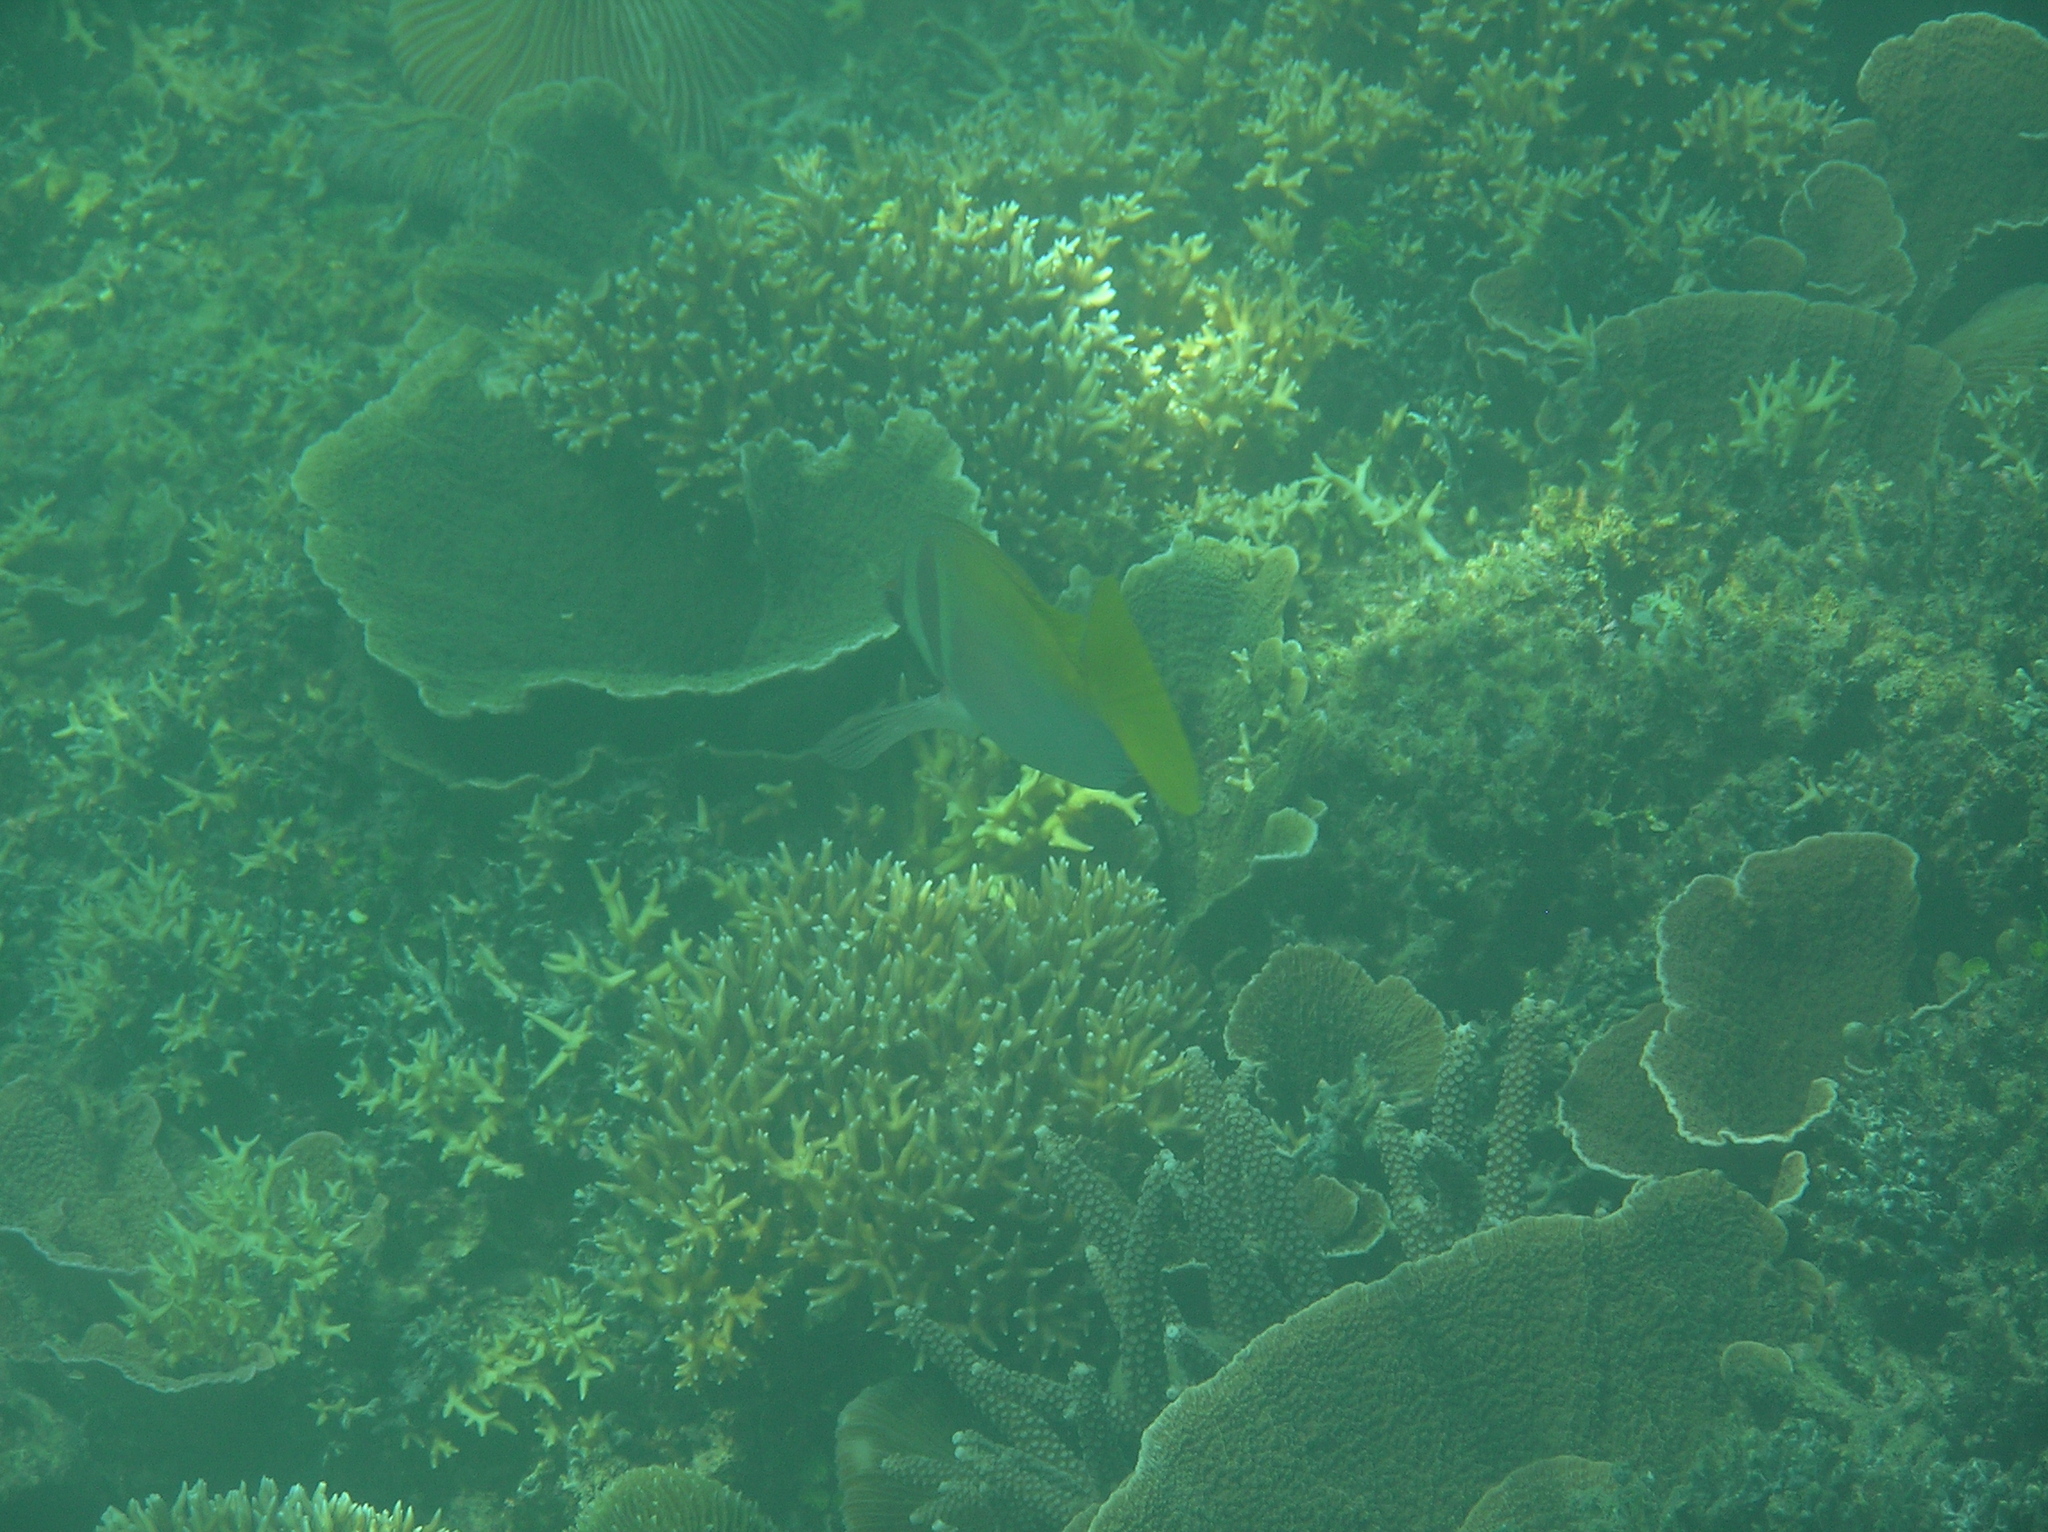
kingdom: Animalia
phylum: Chordata
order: Perciformes
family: Siganidae
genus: Siganus
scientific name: Siganus virgatus
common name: Barhead spinefoot
